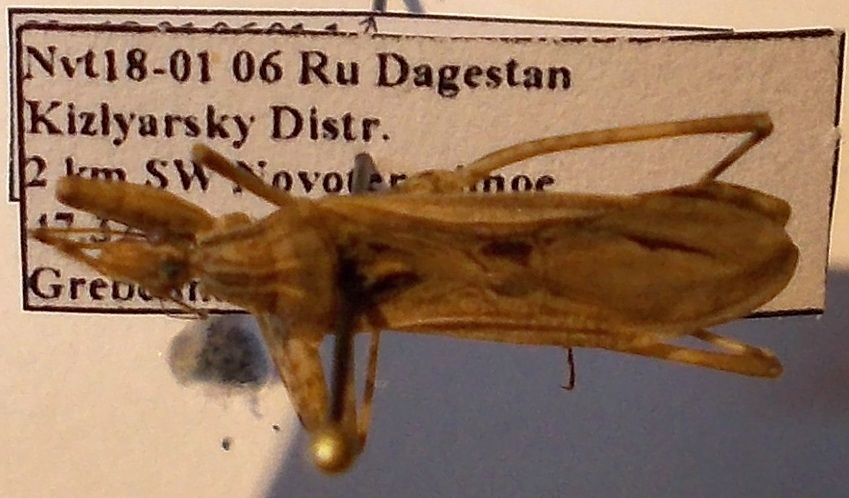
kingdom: Animalia
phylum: Arthropoda
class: Insecta
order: Hemiptera
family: Reduviidae
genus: Oncocephalus
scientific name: Oncocephalus plumicornis
